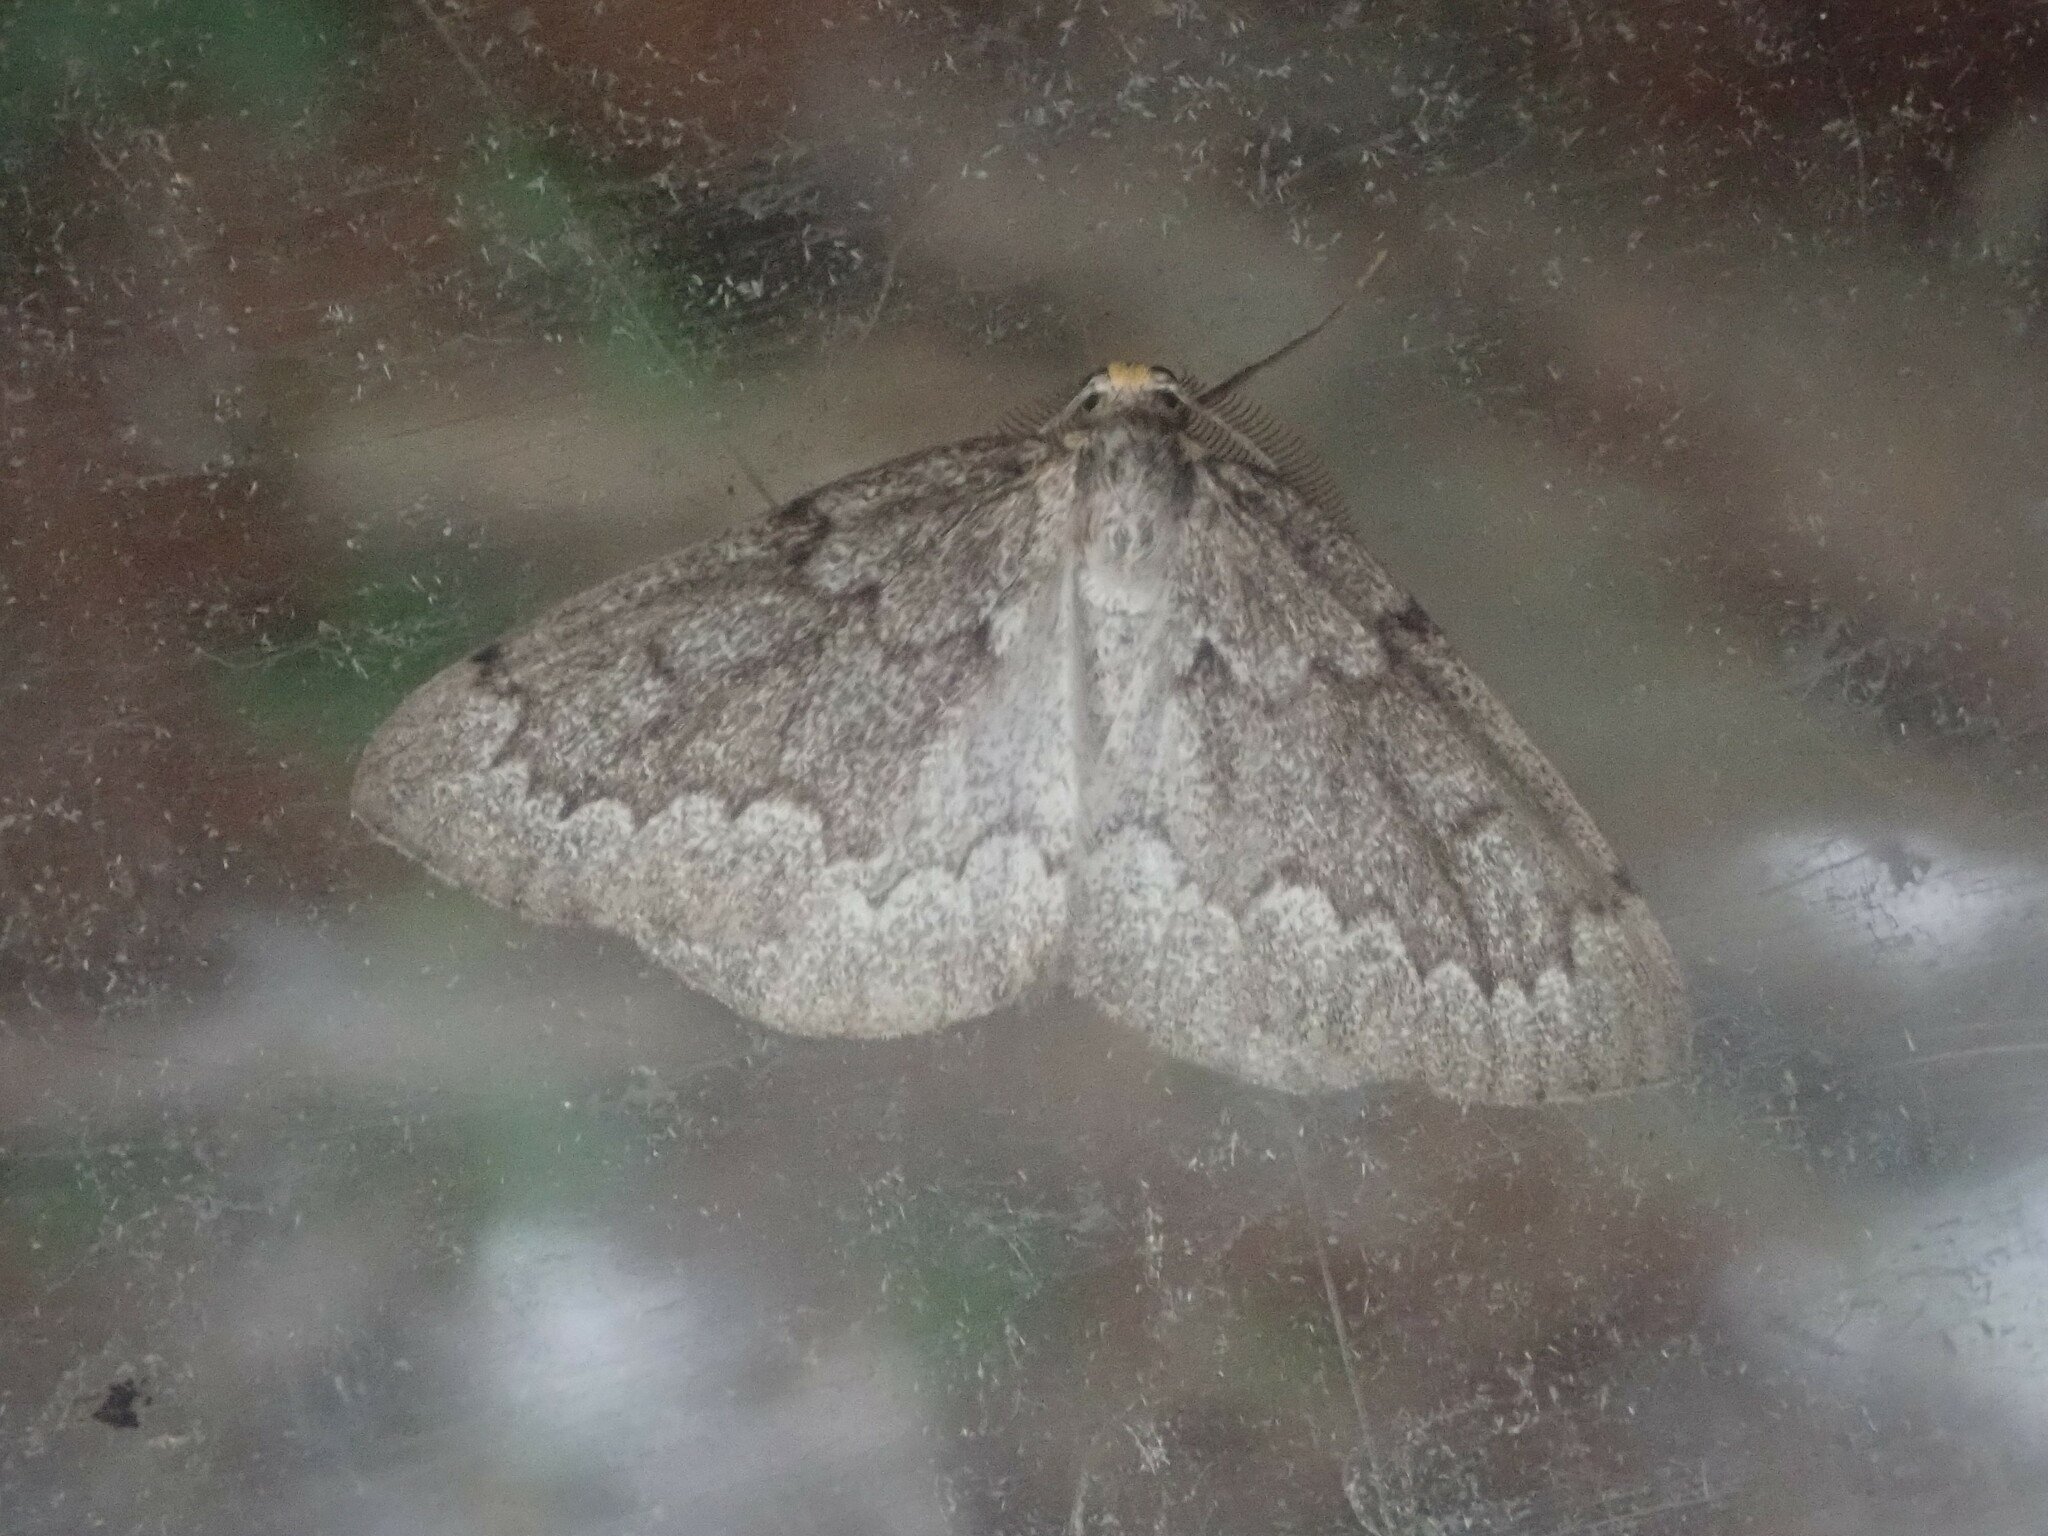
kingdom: Animalia
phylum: Arthropoda
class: Insecta
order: Lepidoptera
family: Geometridae
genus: Nepytia
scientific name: Nepytia canosaria
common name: False hemlock looper
